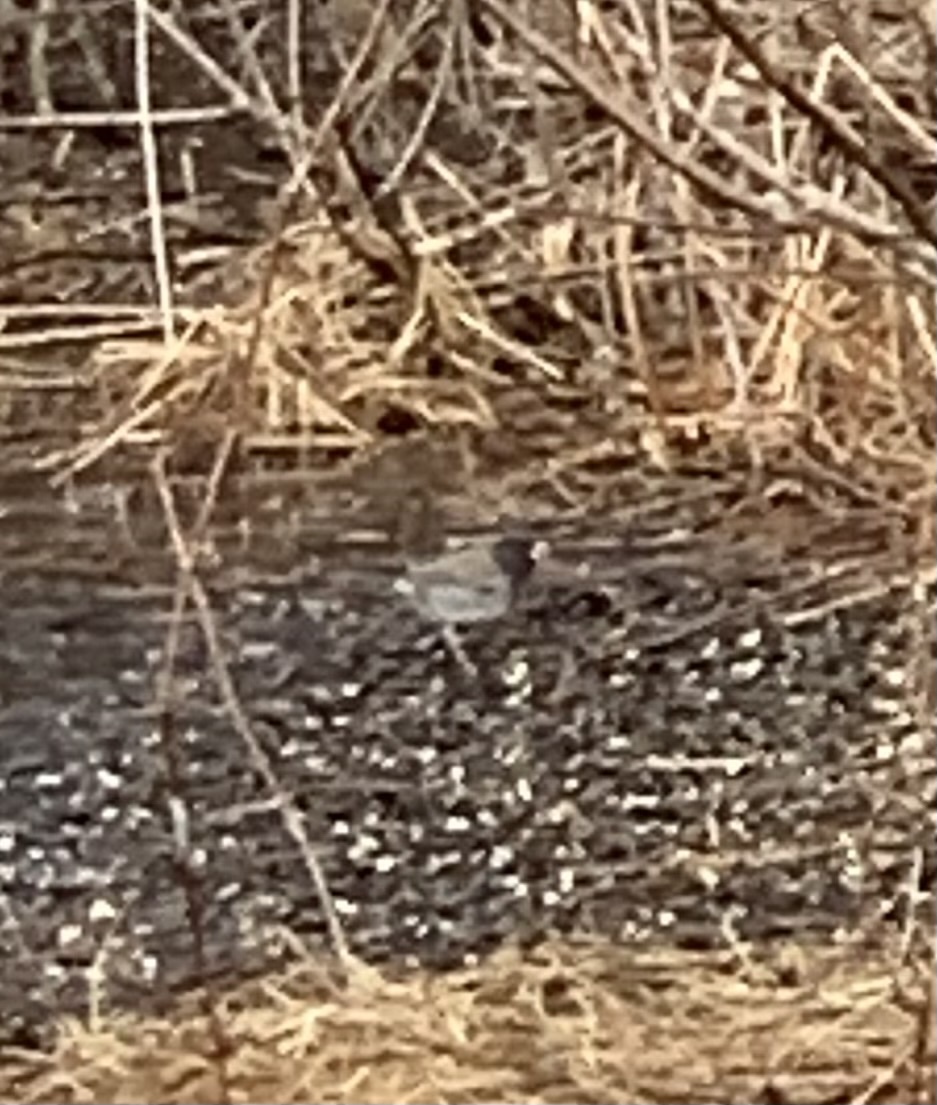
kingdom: Animalia
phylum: Chordata
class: Aves
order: Passeriformes
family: Passerellidae
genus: Junco
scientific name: Junco hyemalis
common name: Dark-eyed junco
